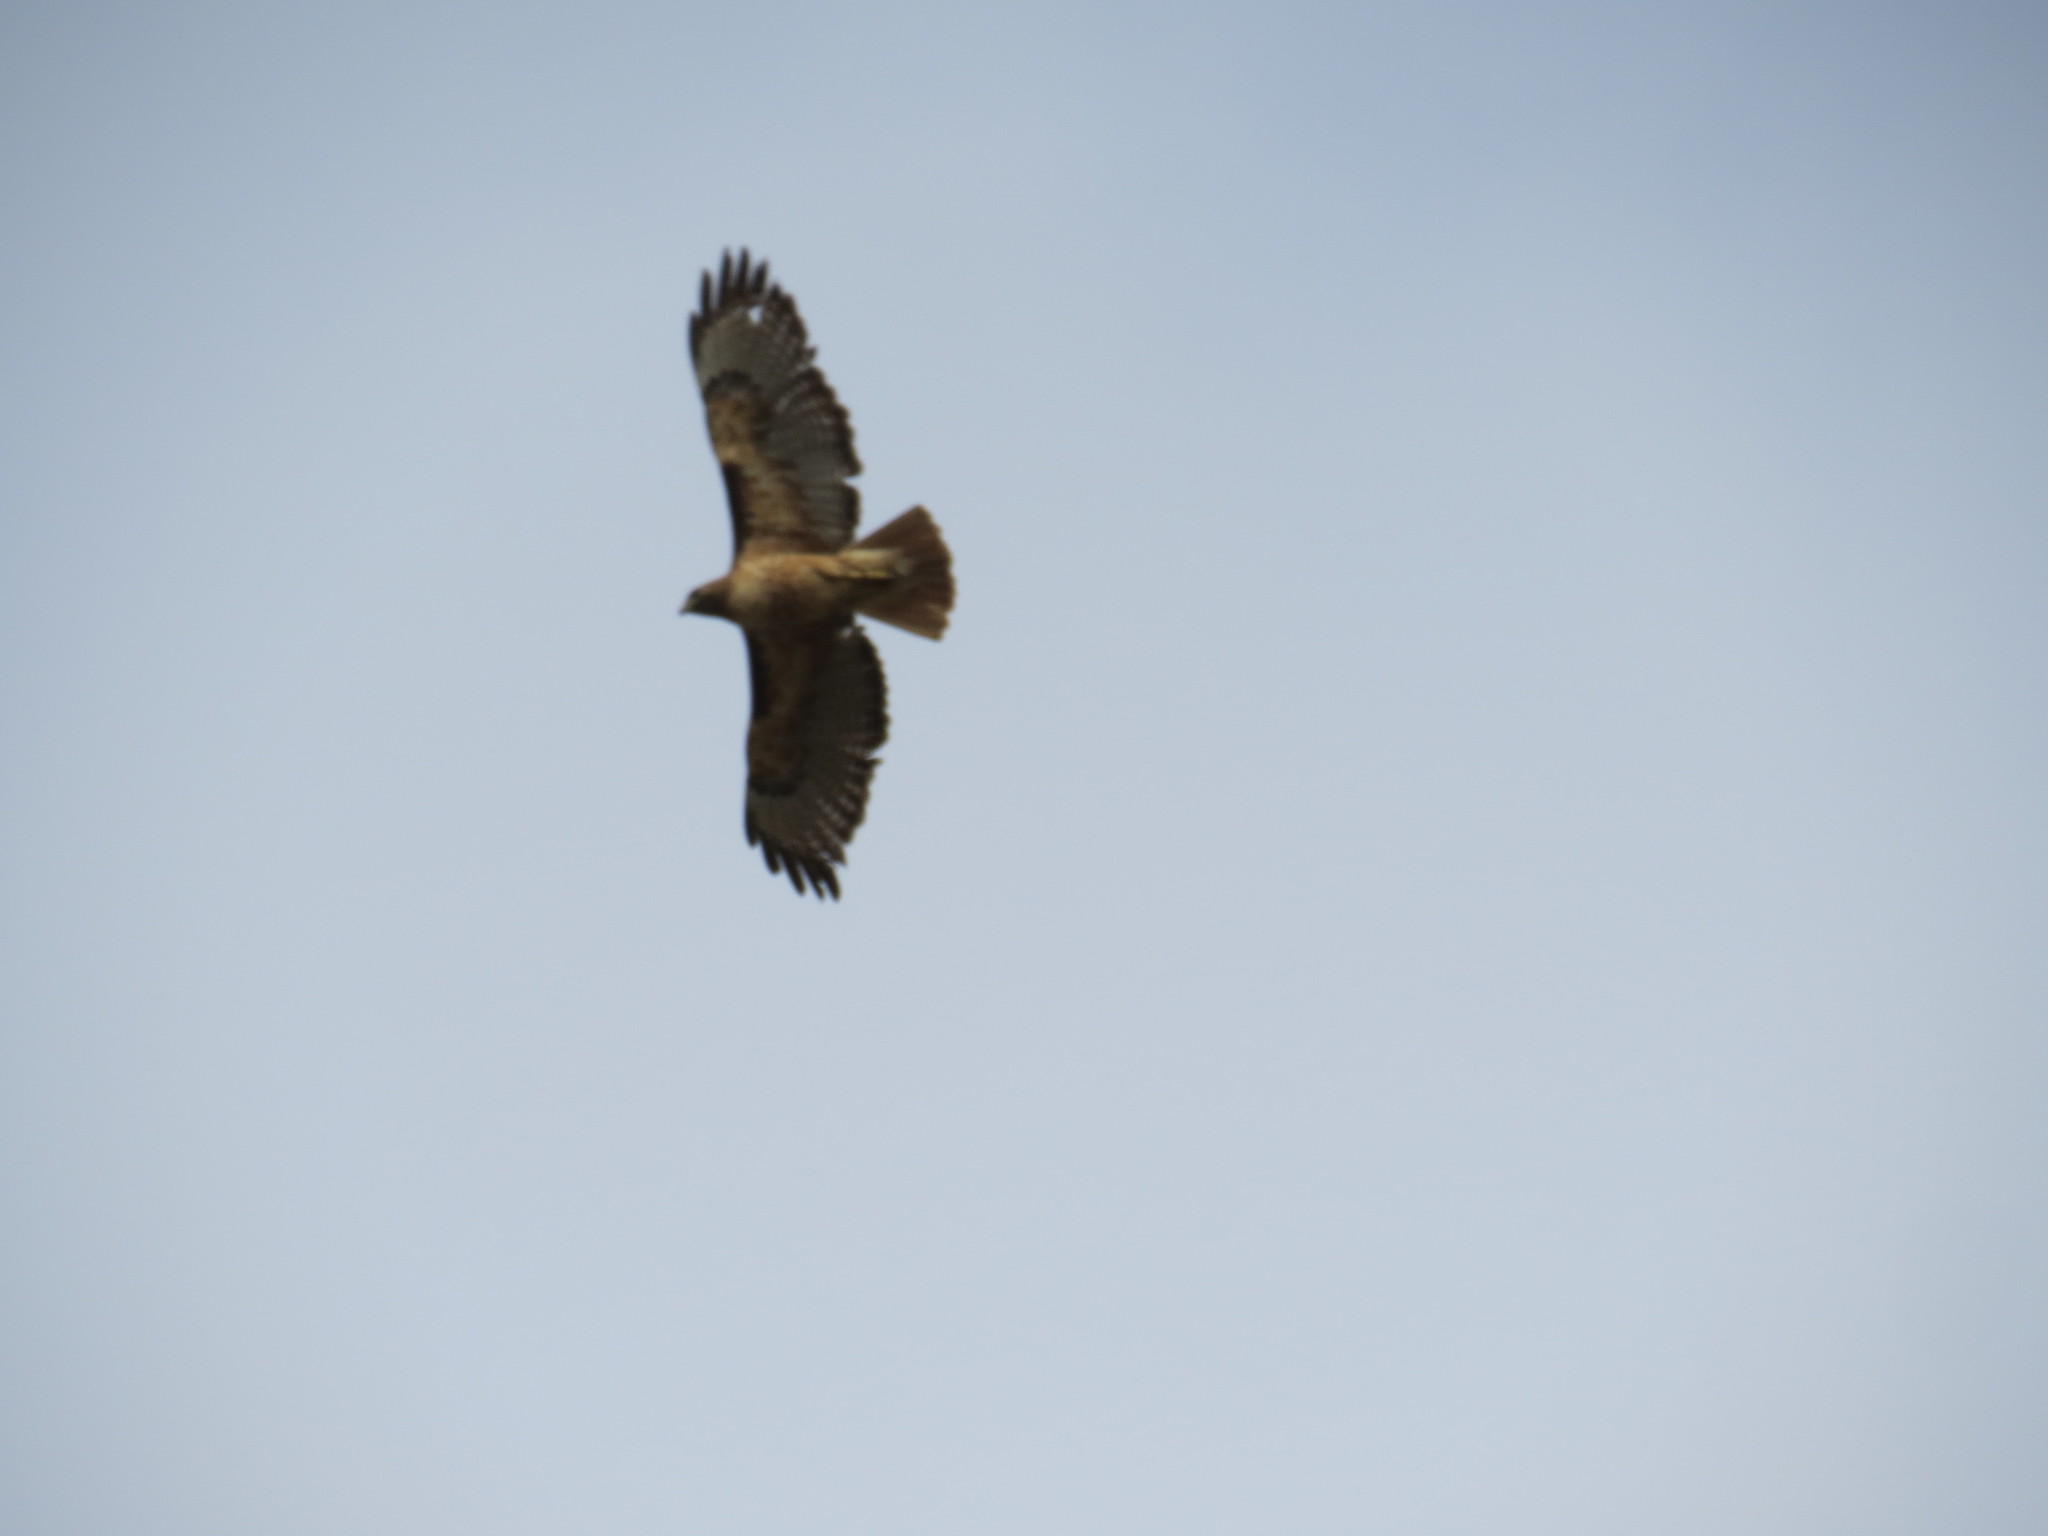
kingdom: Animalia
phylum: Chordata
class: Aves
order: Accipitriformes
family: Accipitridae
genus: Buteo
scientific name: Buteo jamaicensis
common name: Red-tailed hawk
